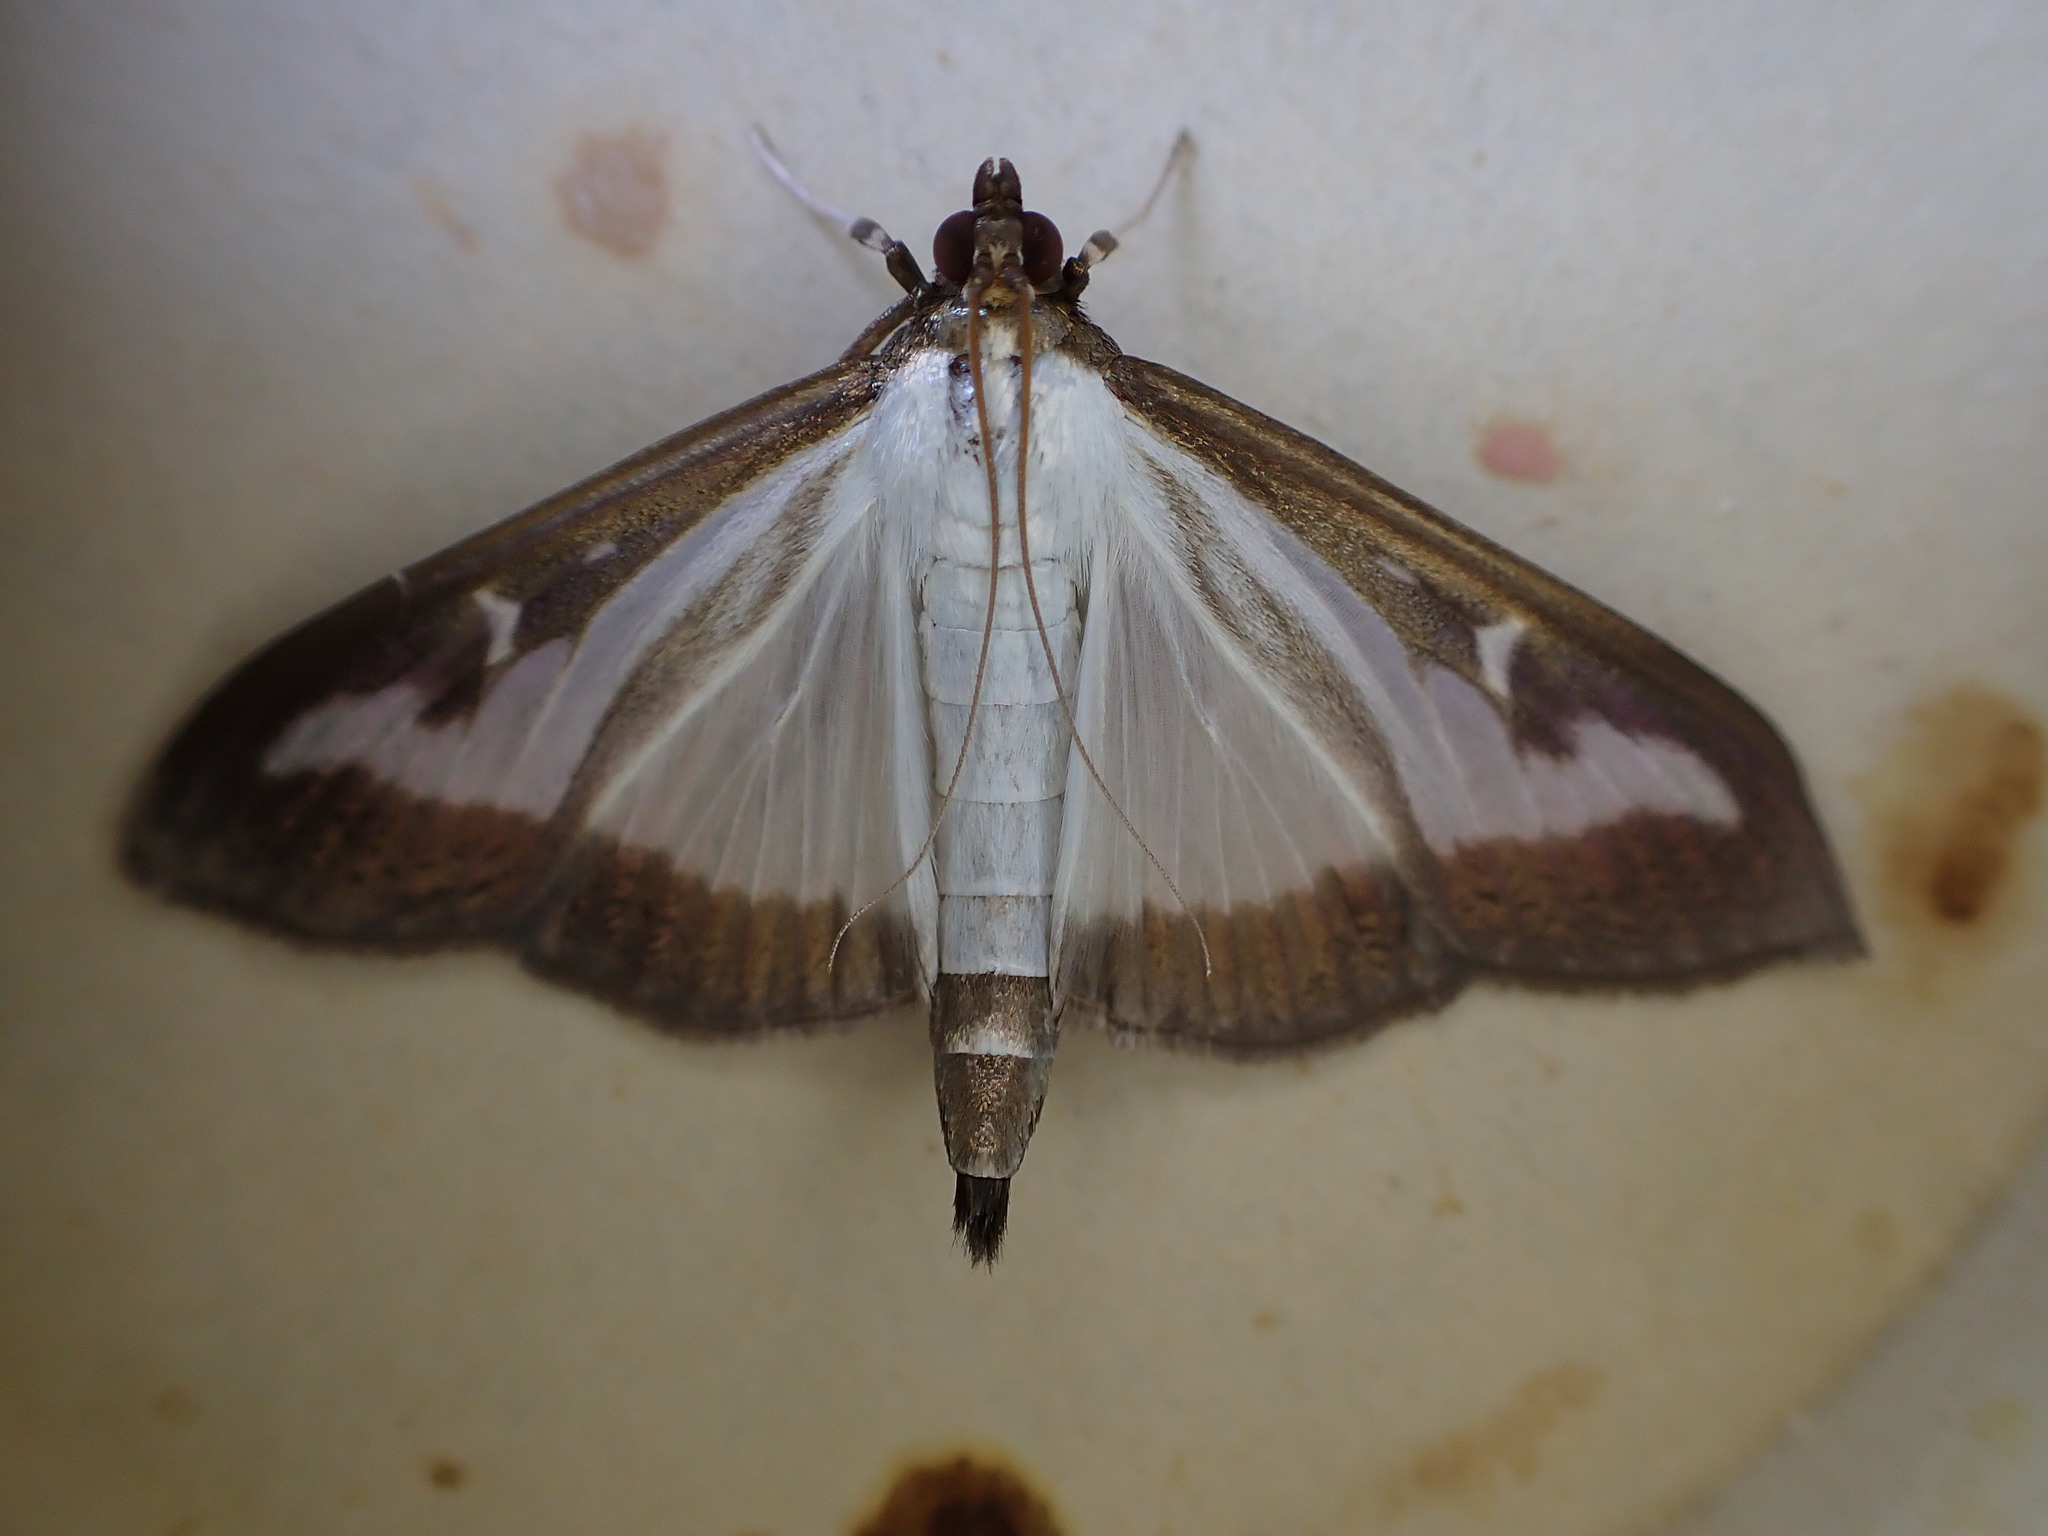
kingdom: Animalia
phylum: Arthropoda
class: Insecta
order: Lepidoptera
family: Crambidae
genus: Cydalima
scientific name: Cydalima perspectalis
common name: Box tree moth
